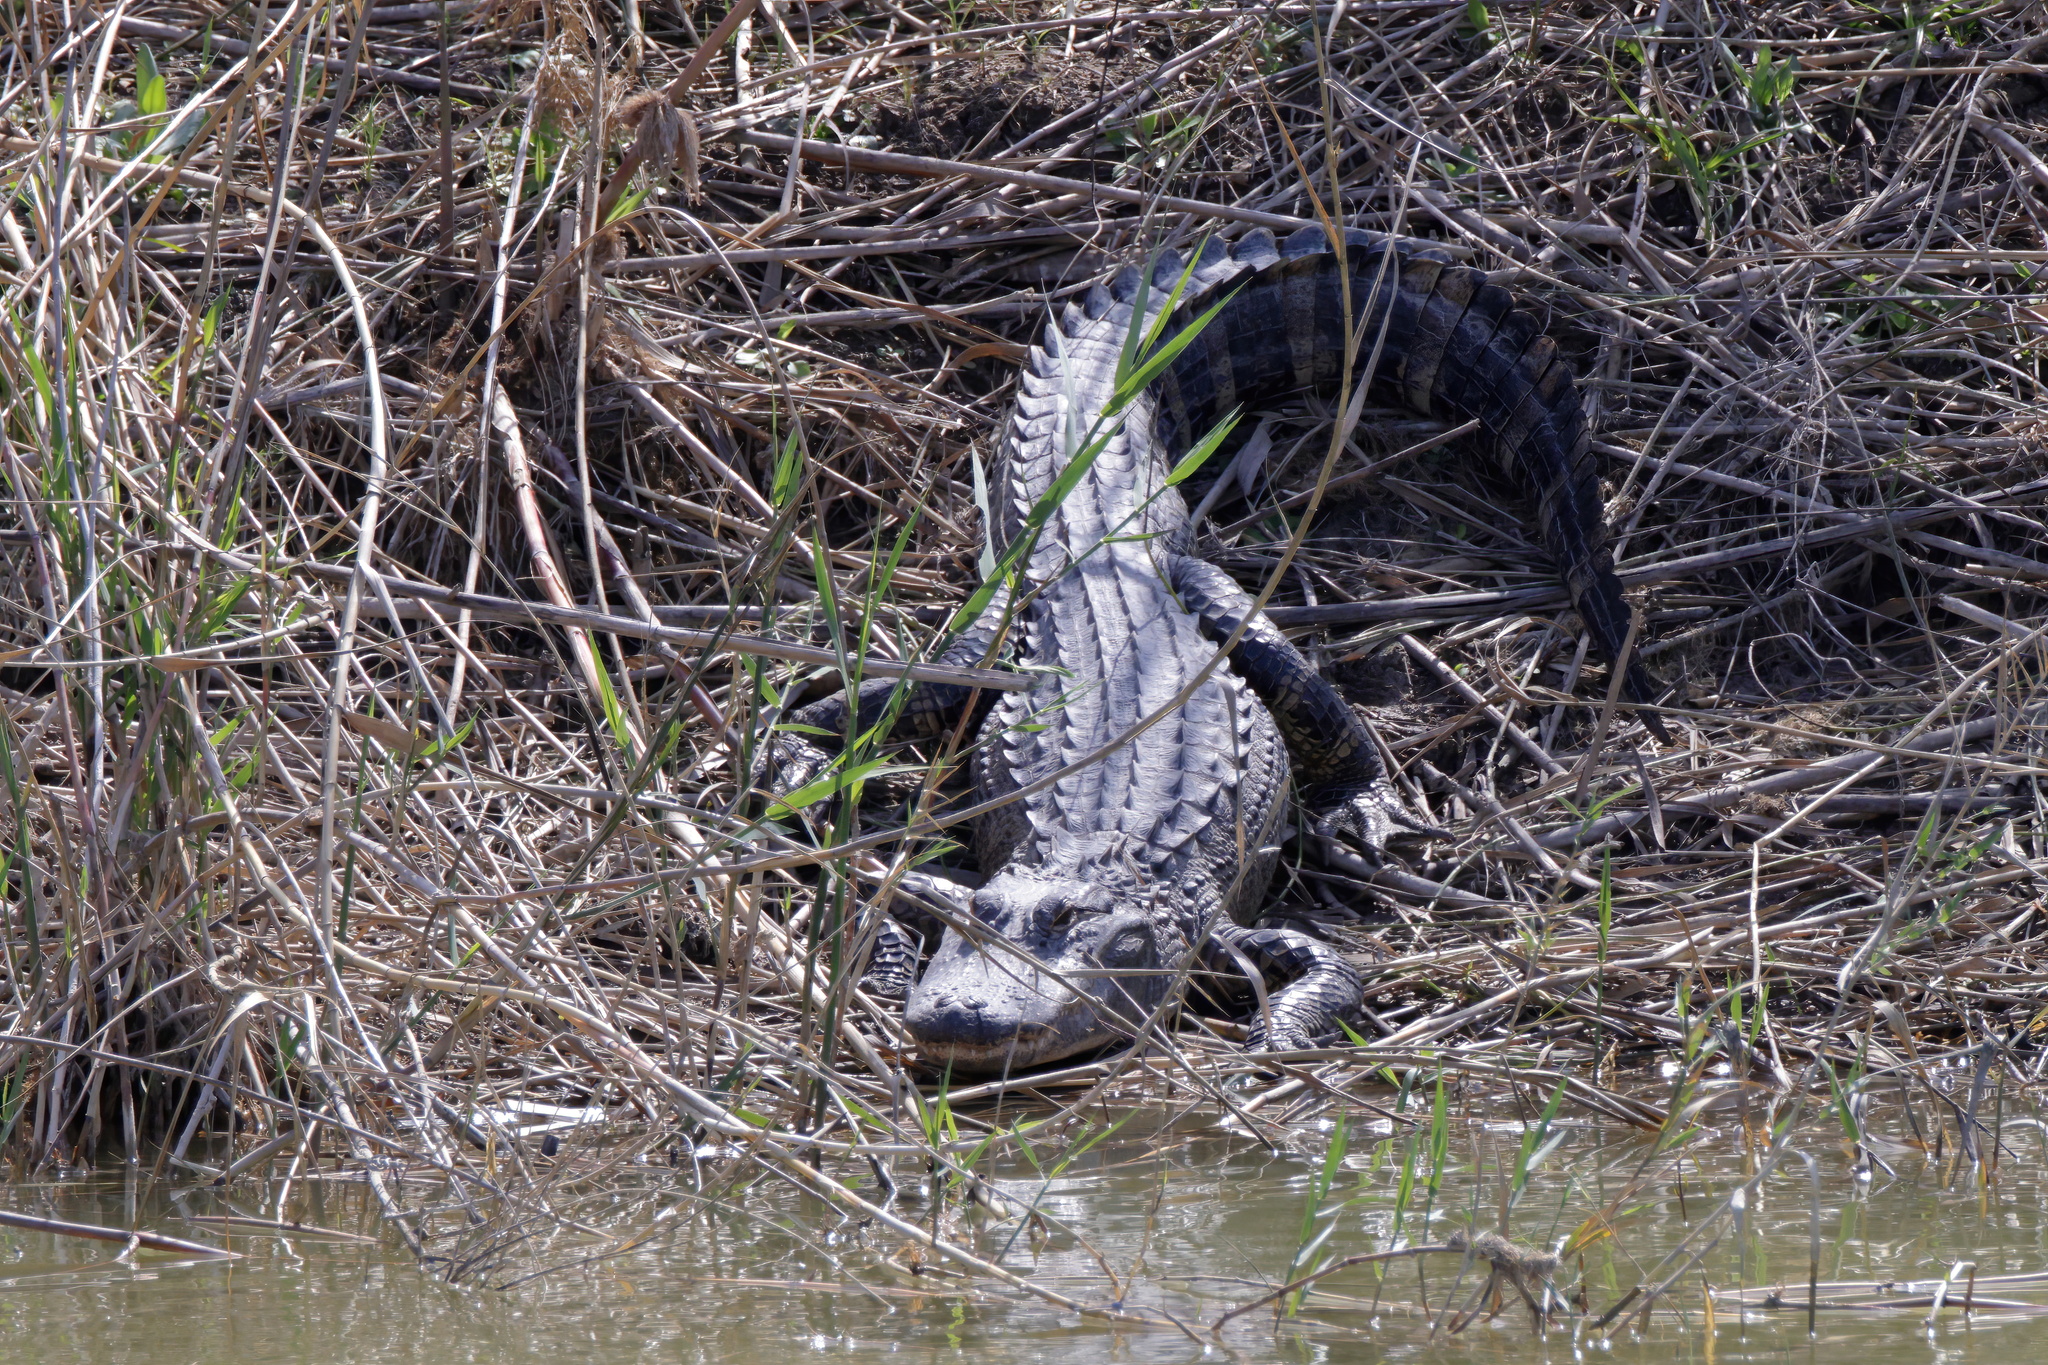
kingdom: Animalia
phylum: Chordata
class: Crocodylia
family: Alligatoridae
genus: Alligator
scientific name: Alligator mississippiensis
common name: American alligator
